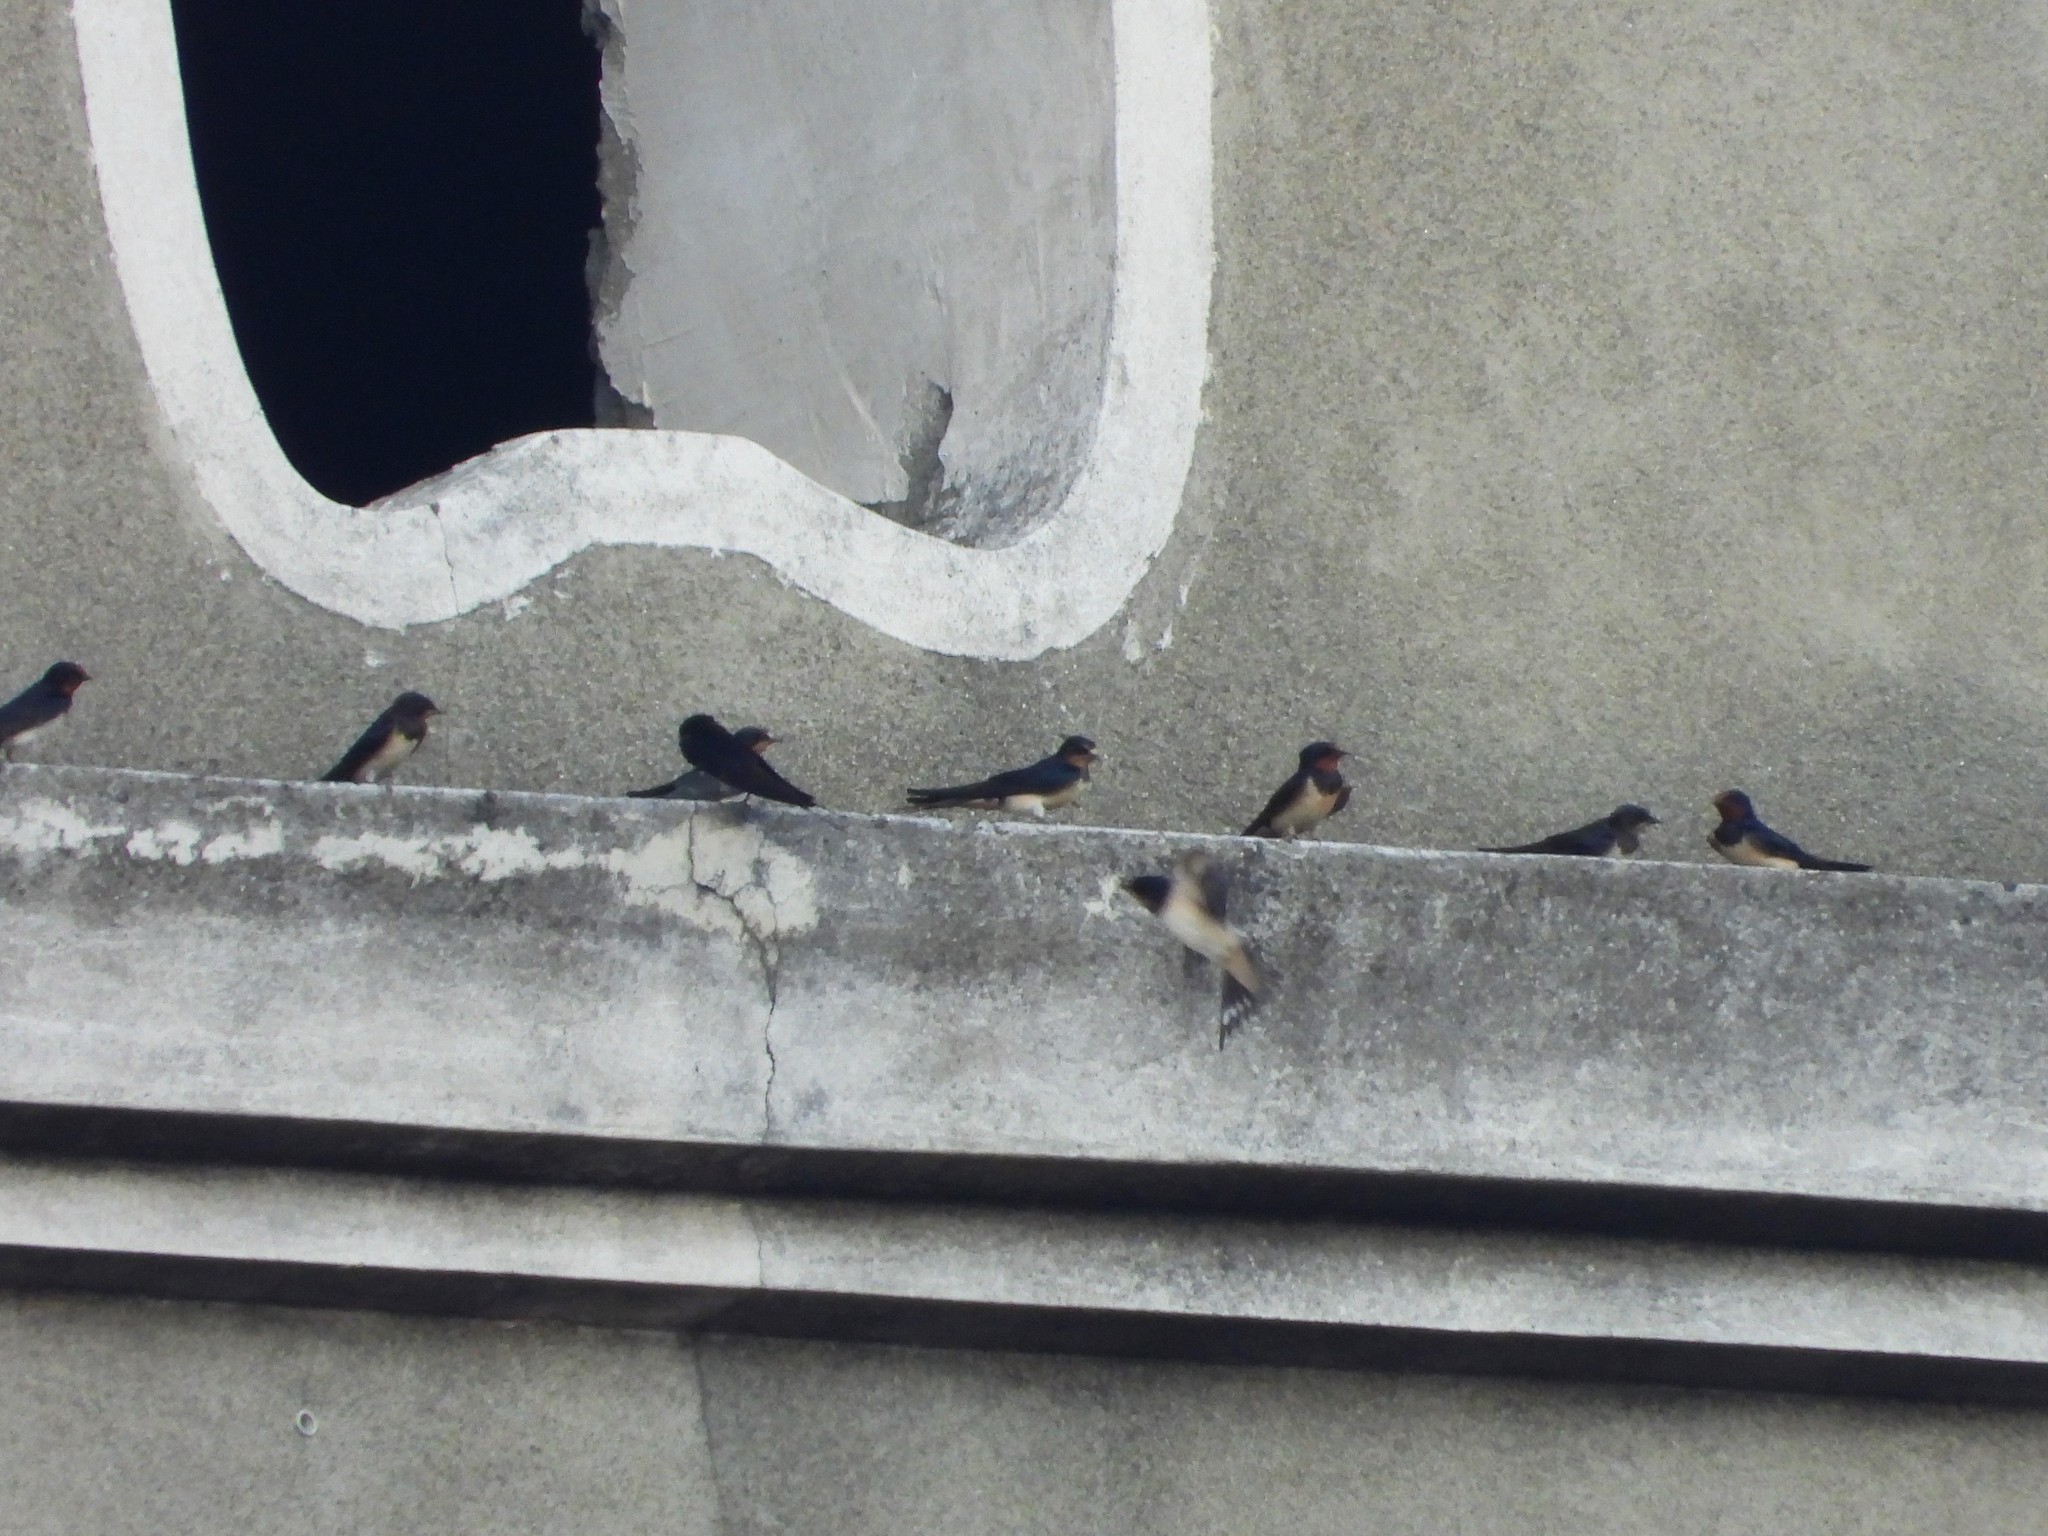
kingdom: Animalia
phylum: Chordata
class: Aves
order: Passeriformes
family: Hirundinidae
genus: Hirundo
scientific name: Hirundo rustica
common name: Barn swallow
